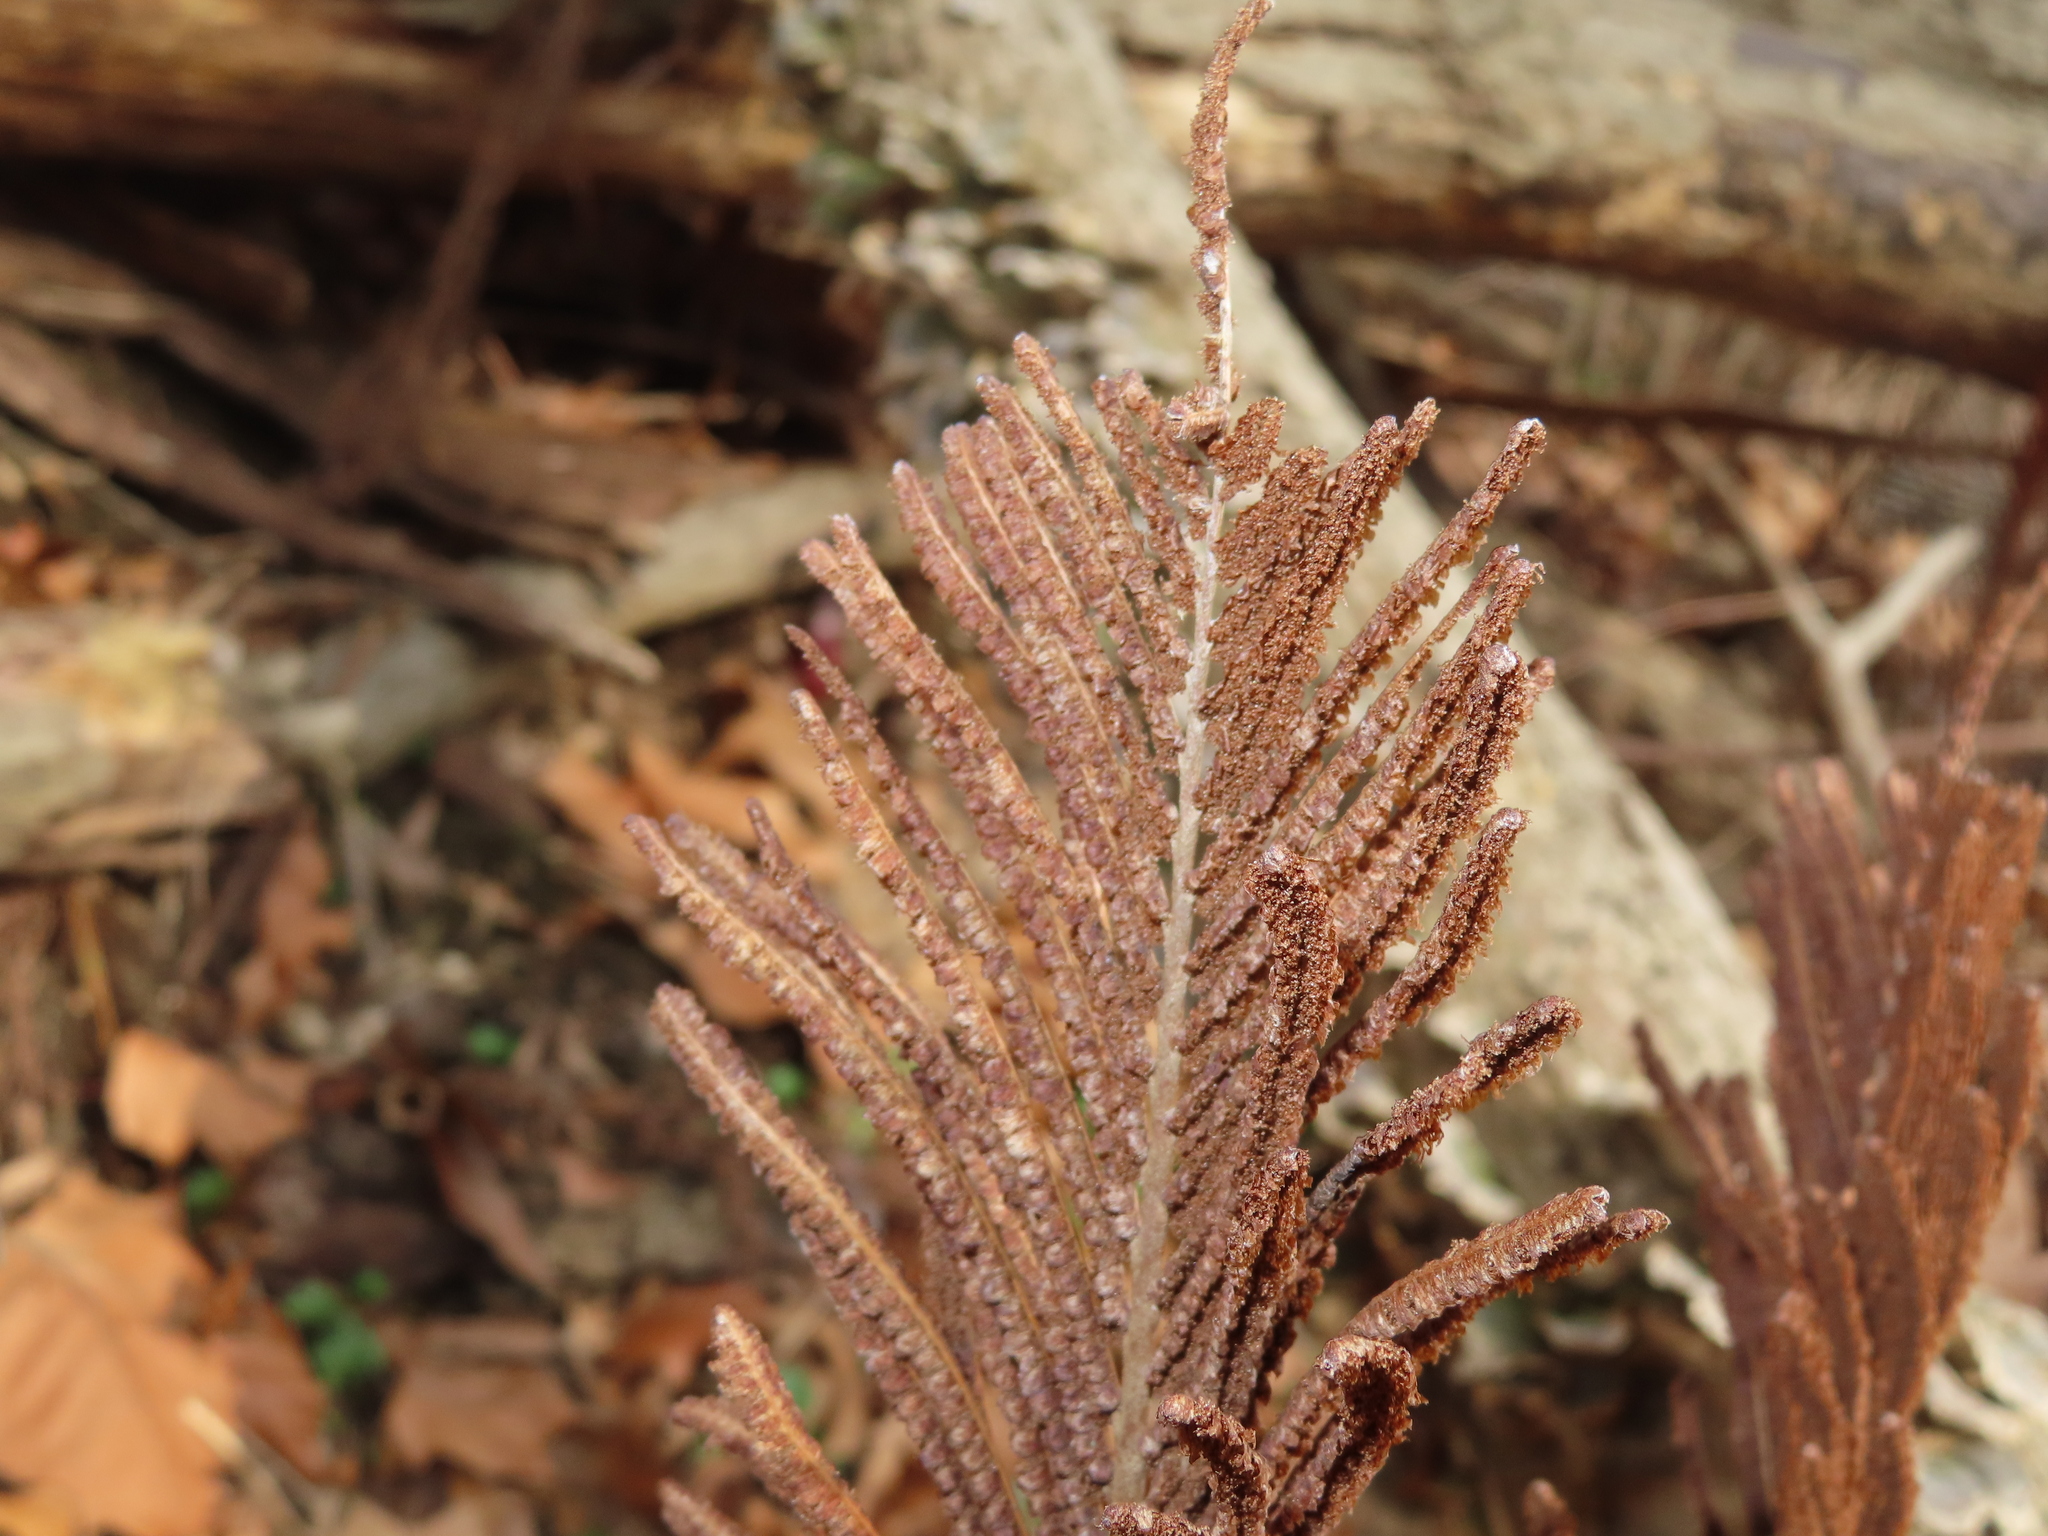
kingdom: Plantae
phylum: Tracheophyta
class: Polypodiopsida
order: Polypodiales
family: Onocleaceae
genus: Matteuccia
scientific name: Matteuccia struthiopteris
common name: Ostrich fern
